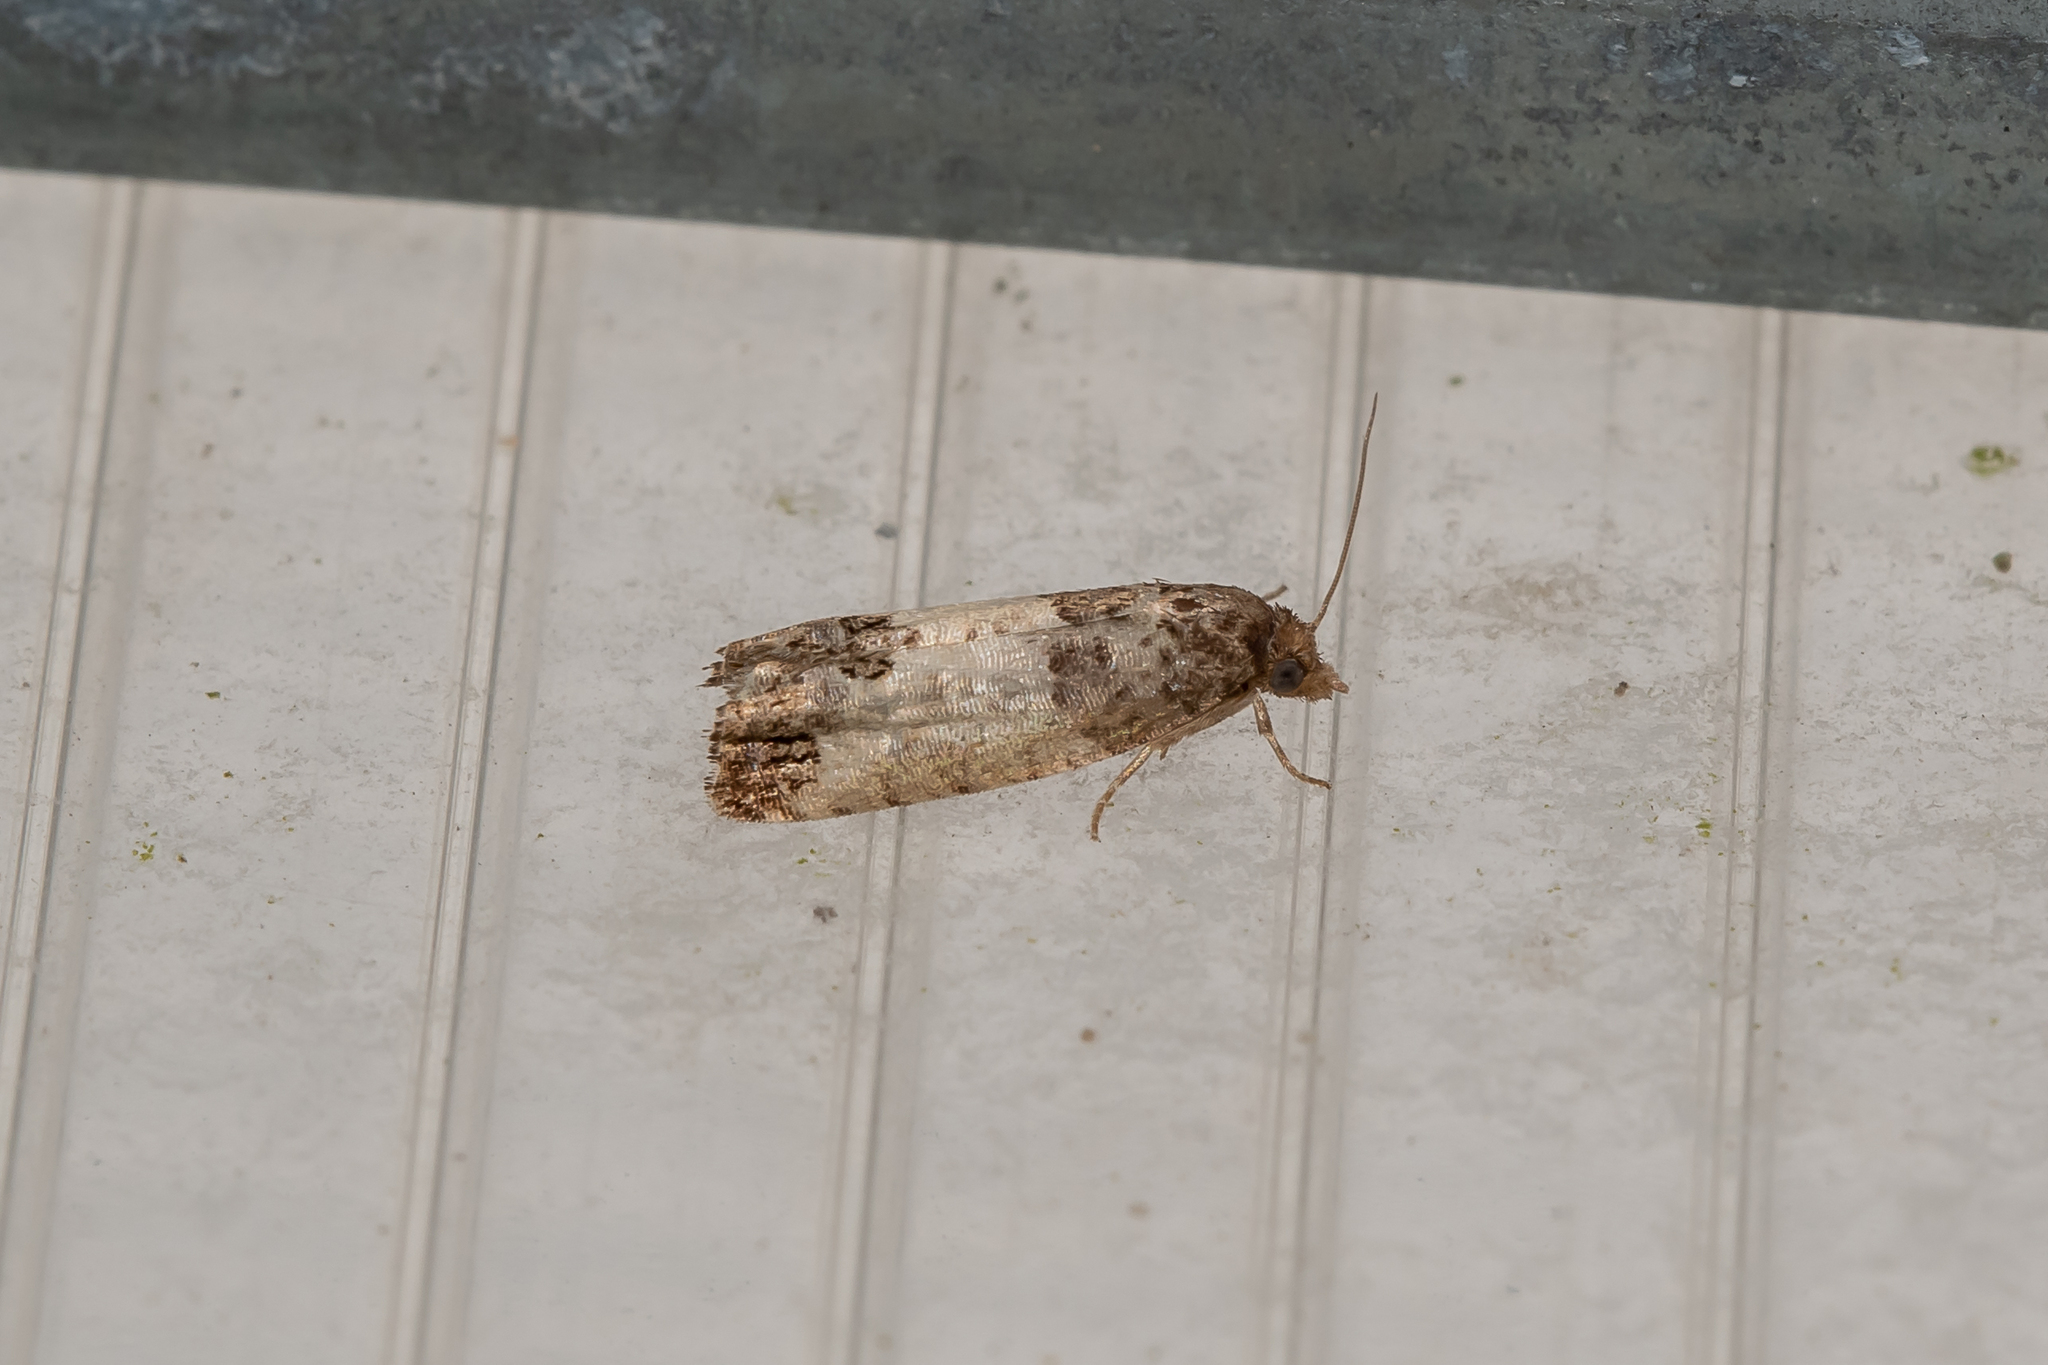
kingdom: Animalia
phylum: Arthropoda
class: Insecta
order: Lepidoptera
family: Tortricidae
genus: Spilonota
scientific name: Spilonota ocellana
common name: Bud moth
